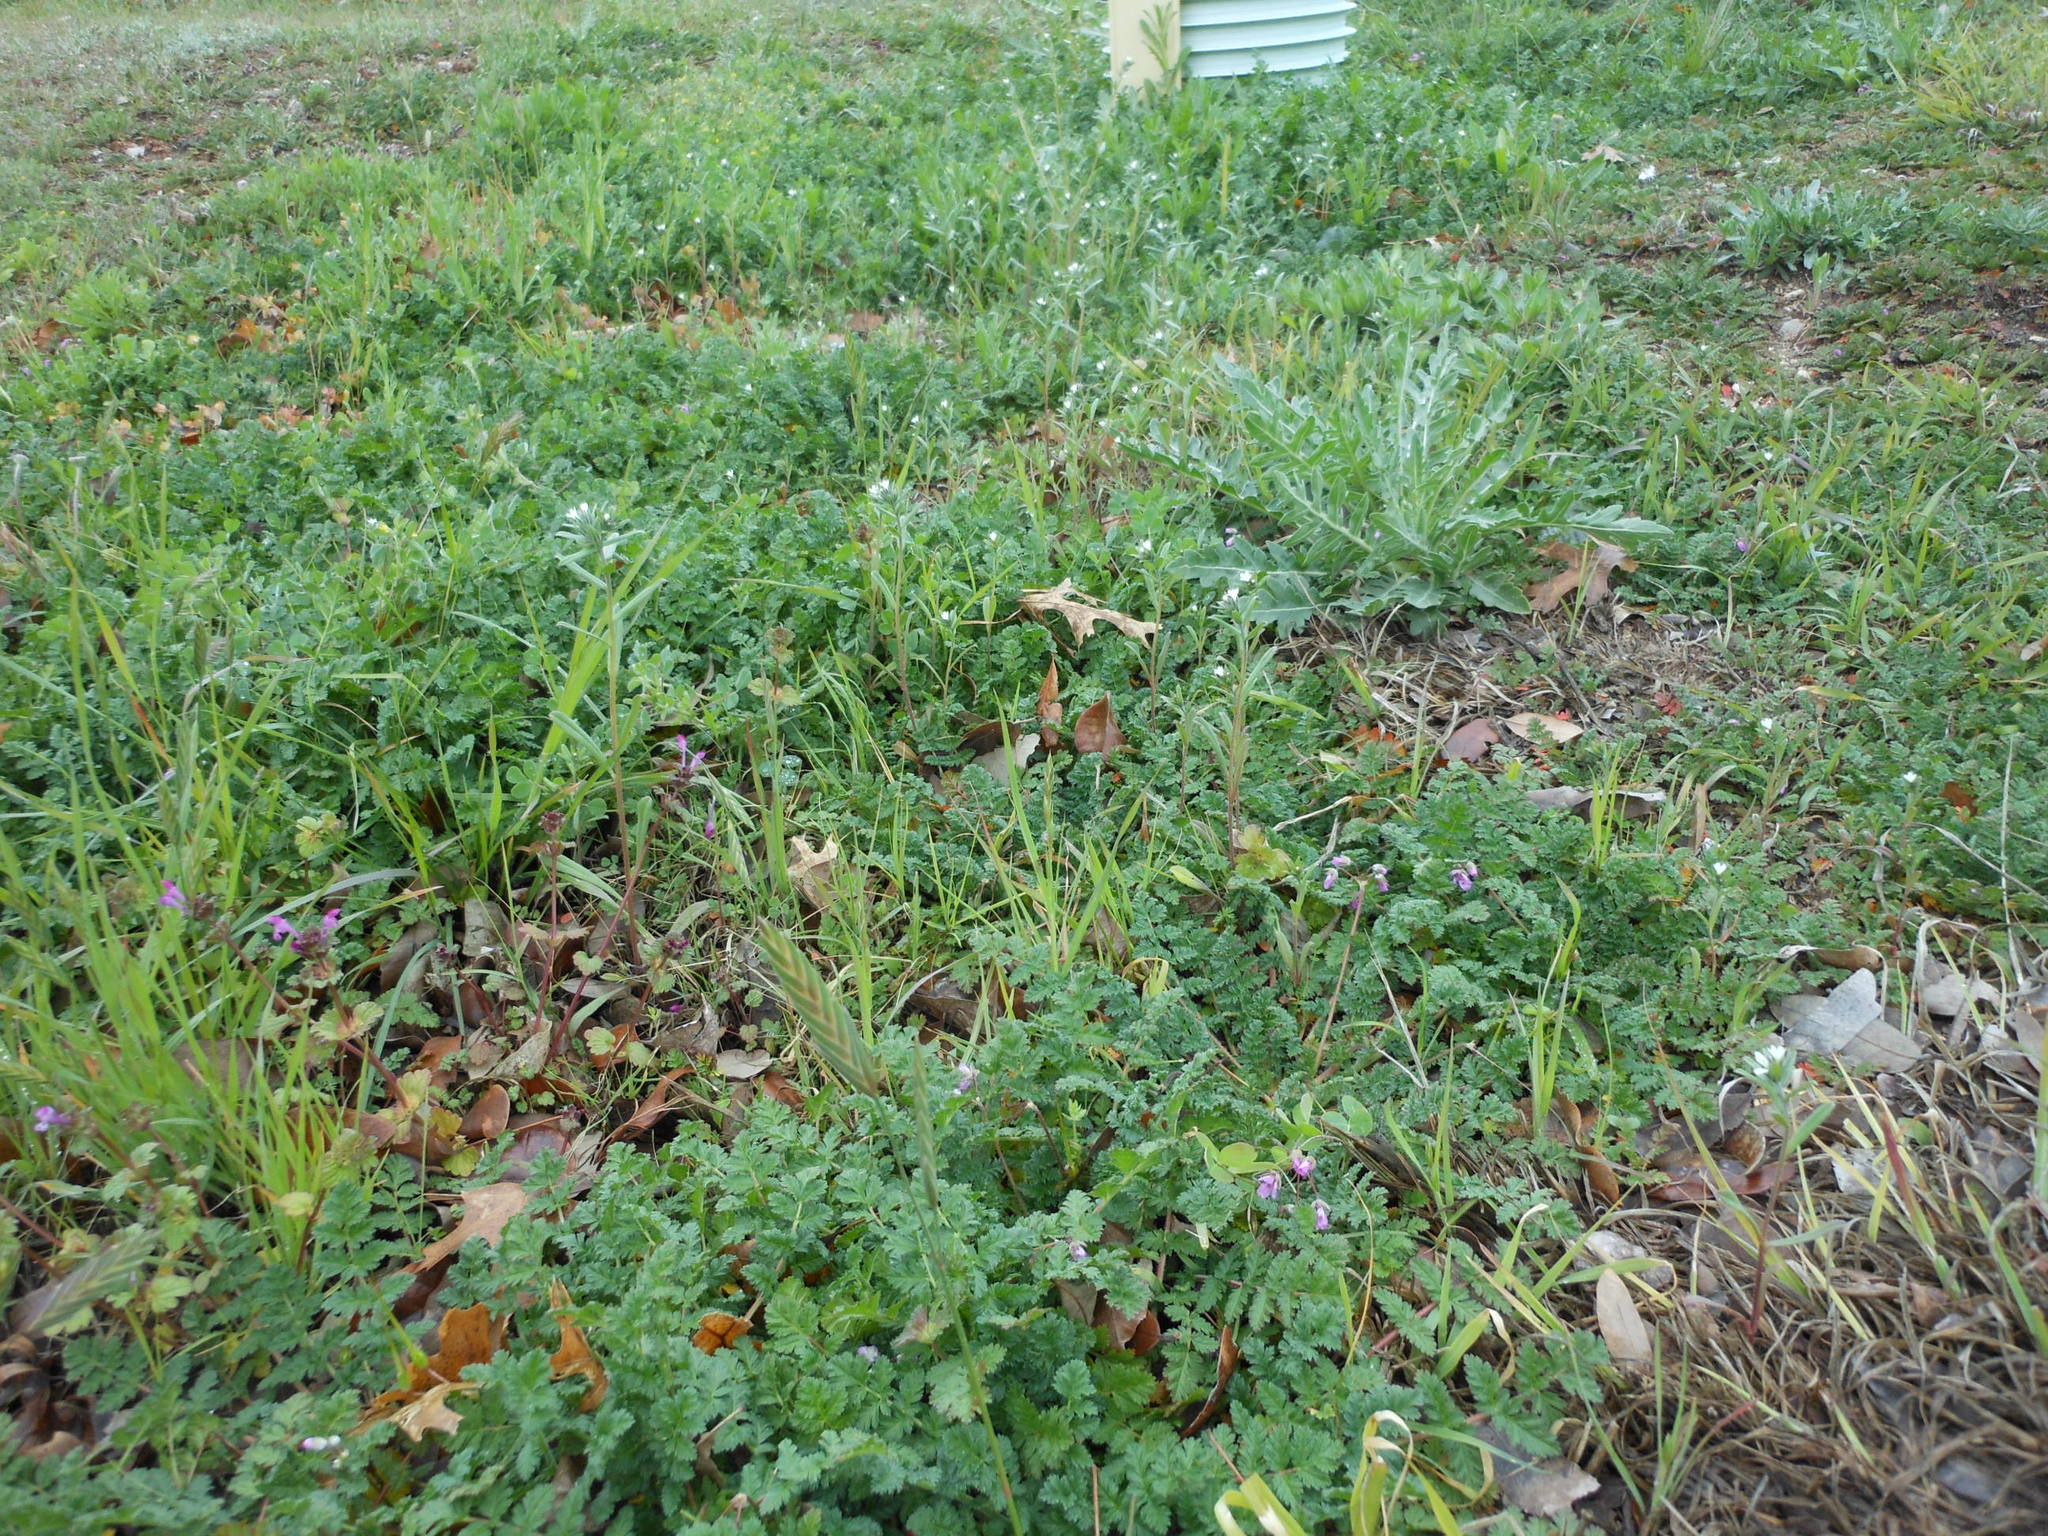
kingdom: Plantae
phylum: Tracheophyta
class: Magnoliopsida
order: Boraginales
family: Boraginaceae
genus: Buglossoides
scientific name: Buglossoides arvensis
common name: Corn gromwell
